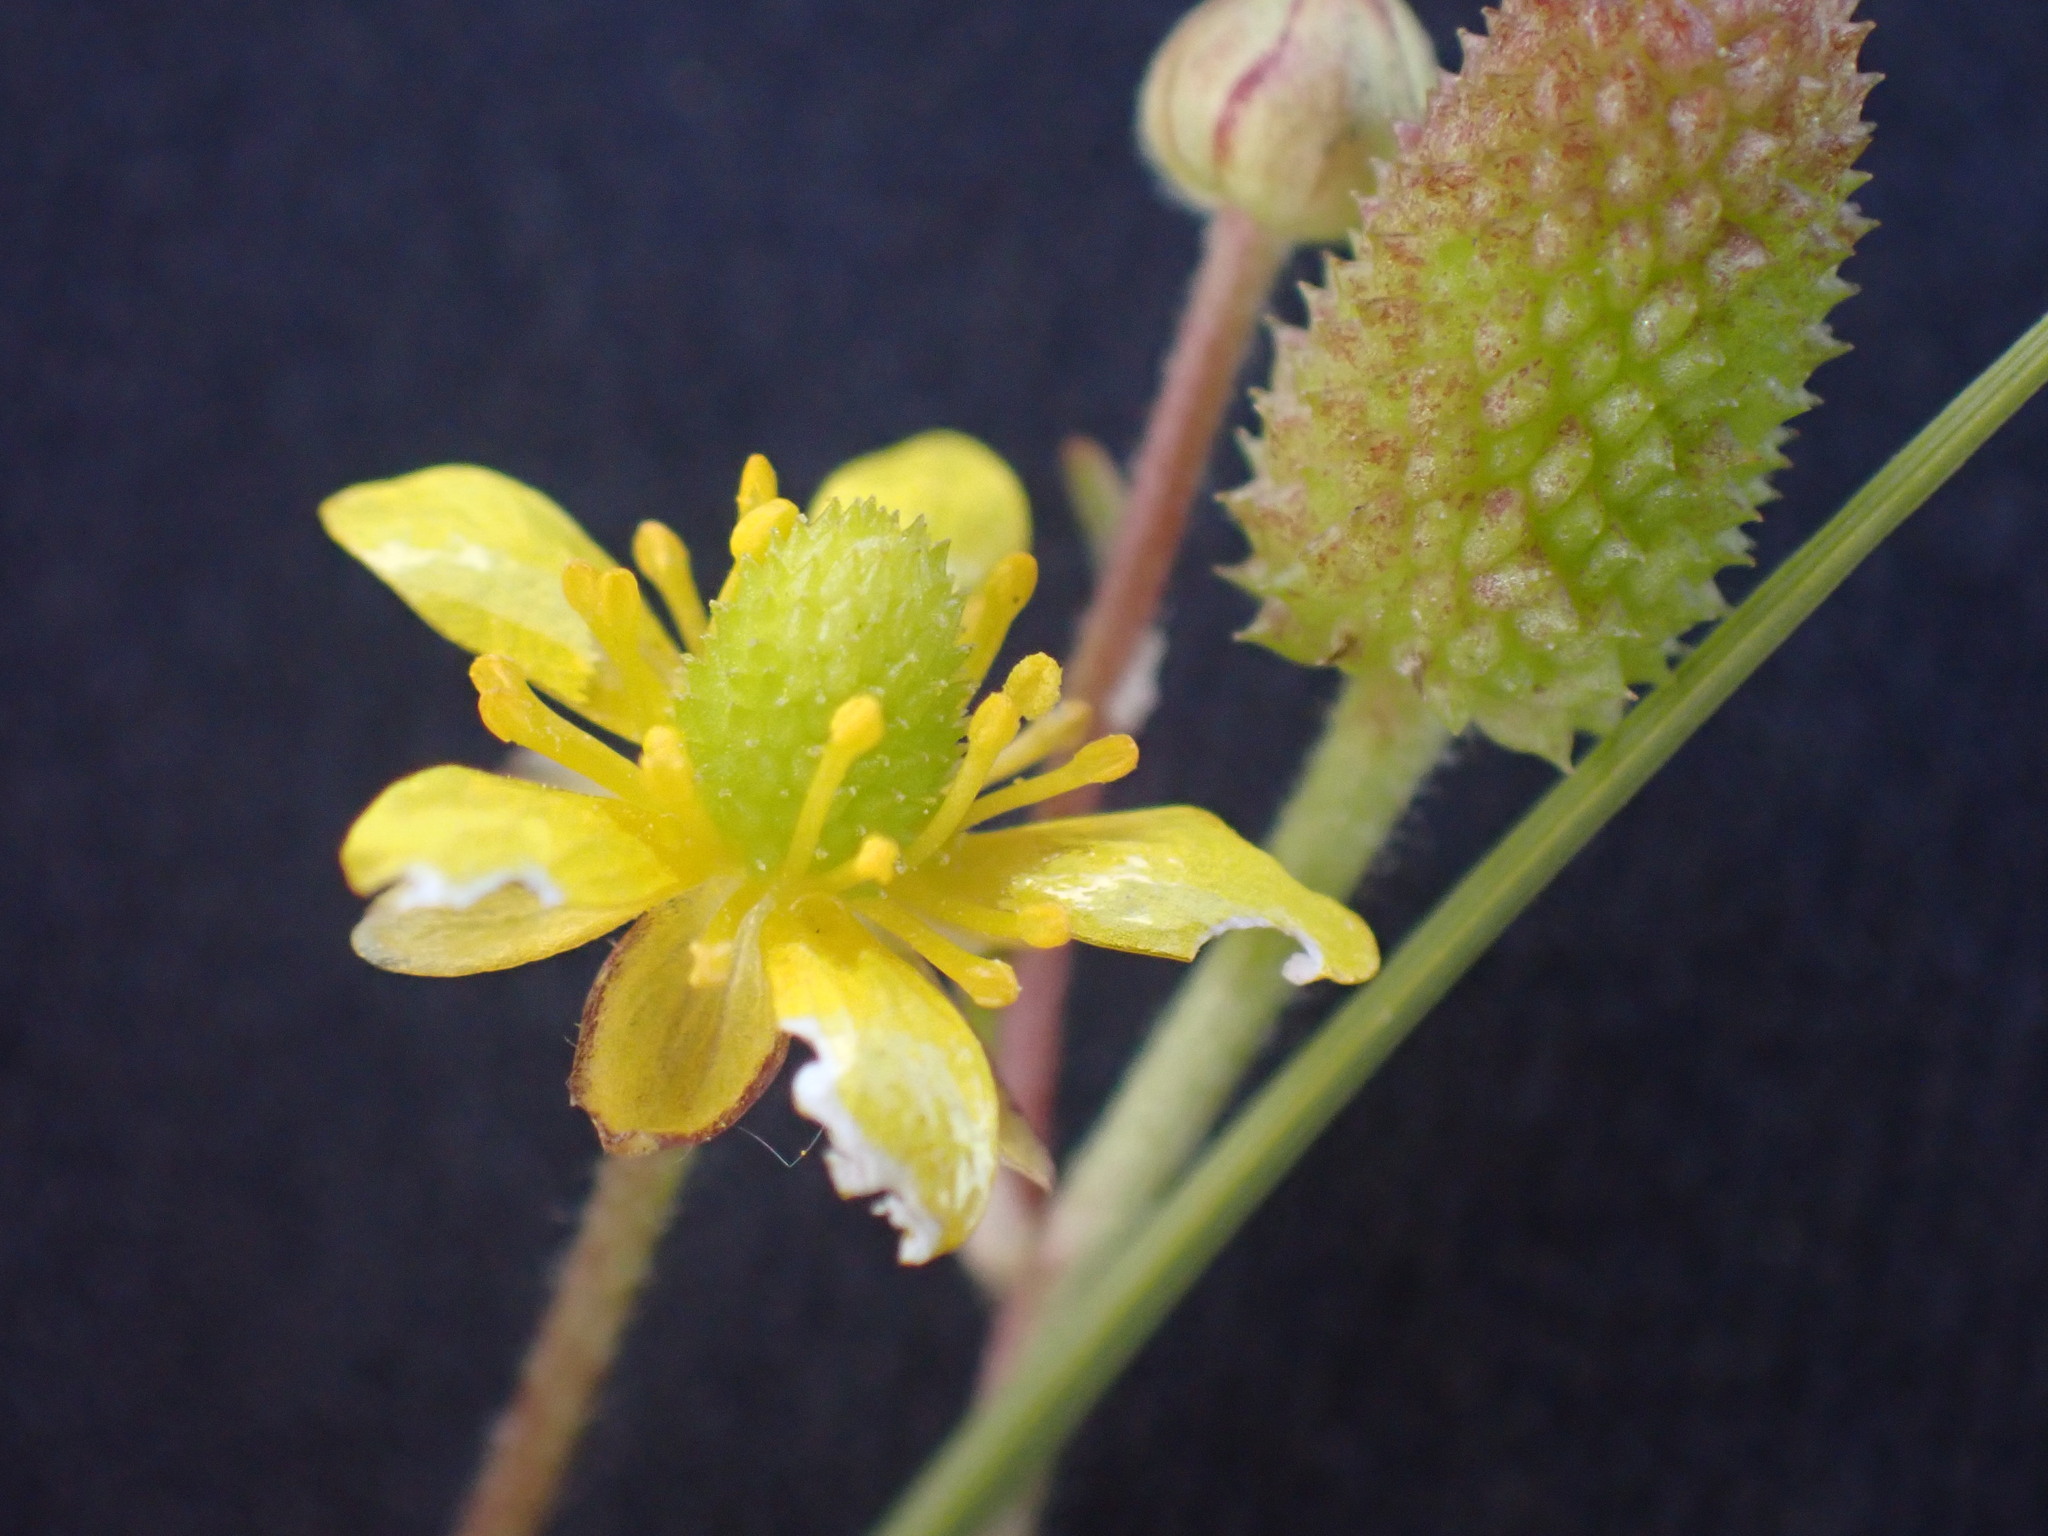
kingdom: Plantae
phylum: Tracheophyta
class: Magnoliopsida
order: Ranunculales
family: Ranunculaceae
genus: Halerpestes
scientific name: Halerpestes cymbalaria
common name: Seaside crowfoot
